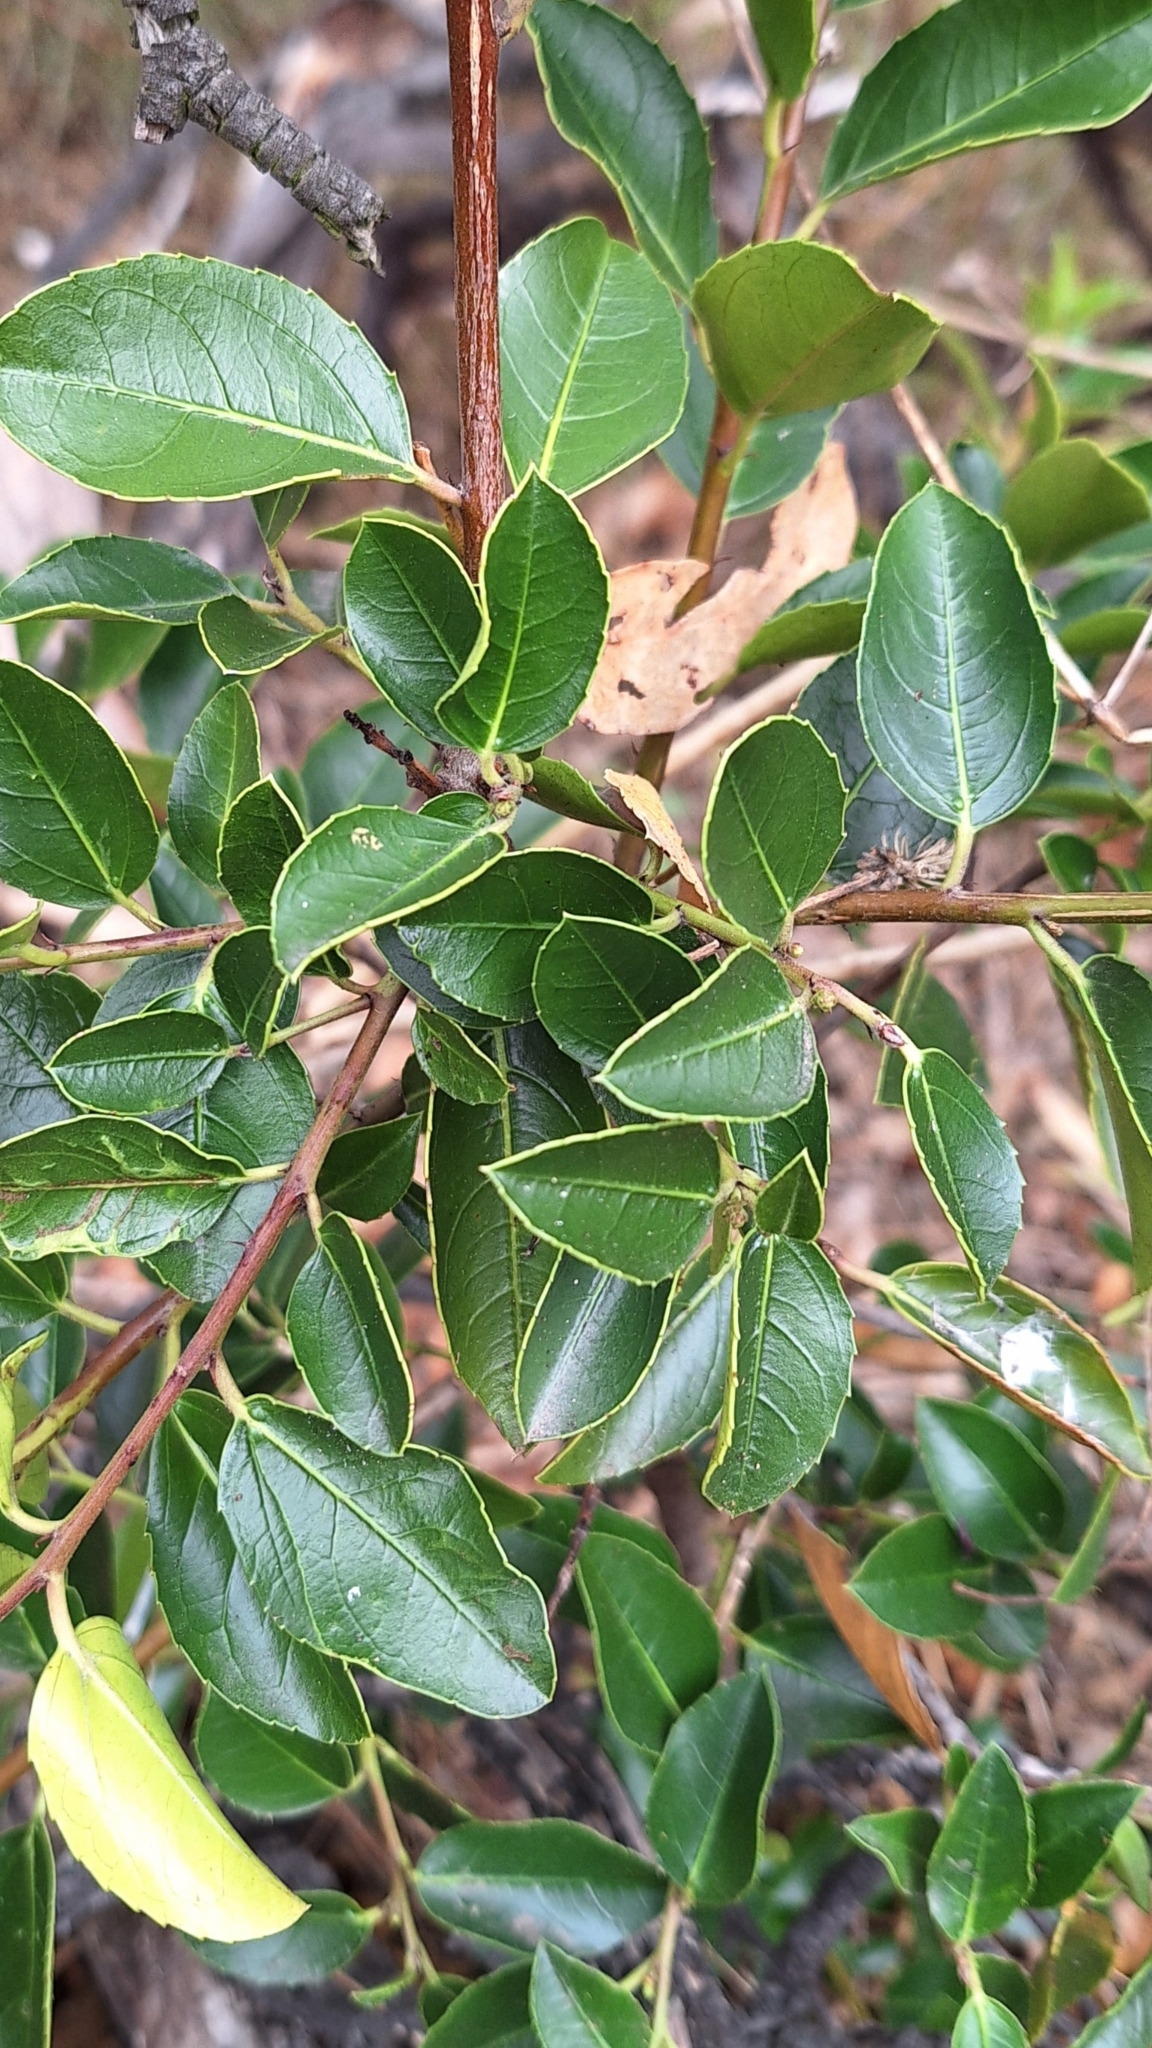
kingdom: Plantae
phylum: Tracheophyta
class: Magnoliopsida
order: Rosales
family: Rhamnaceae
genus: Rhamnus
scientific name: Rhamnus alaternus
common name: Mediterranean buckthorn
